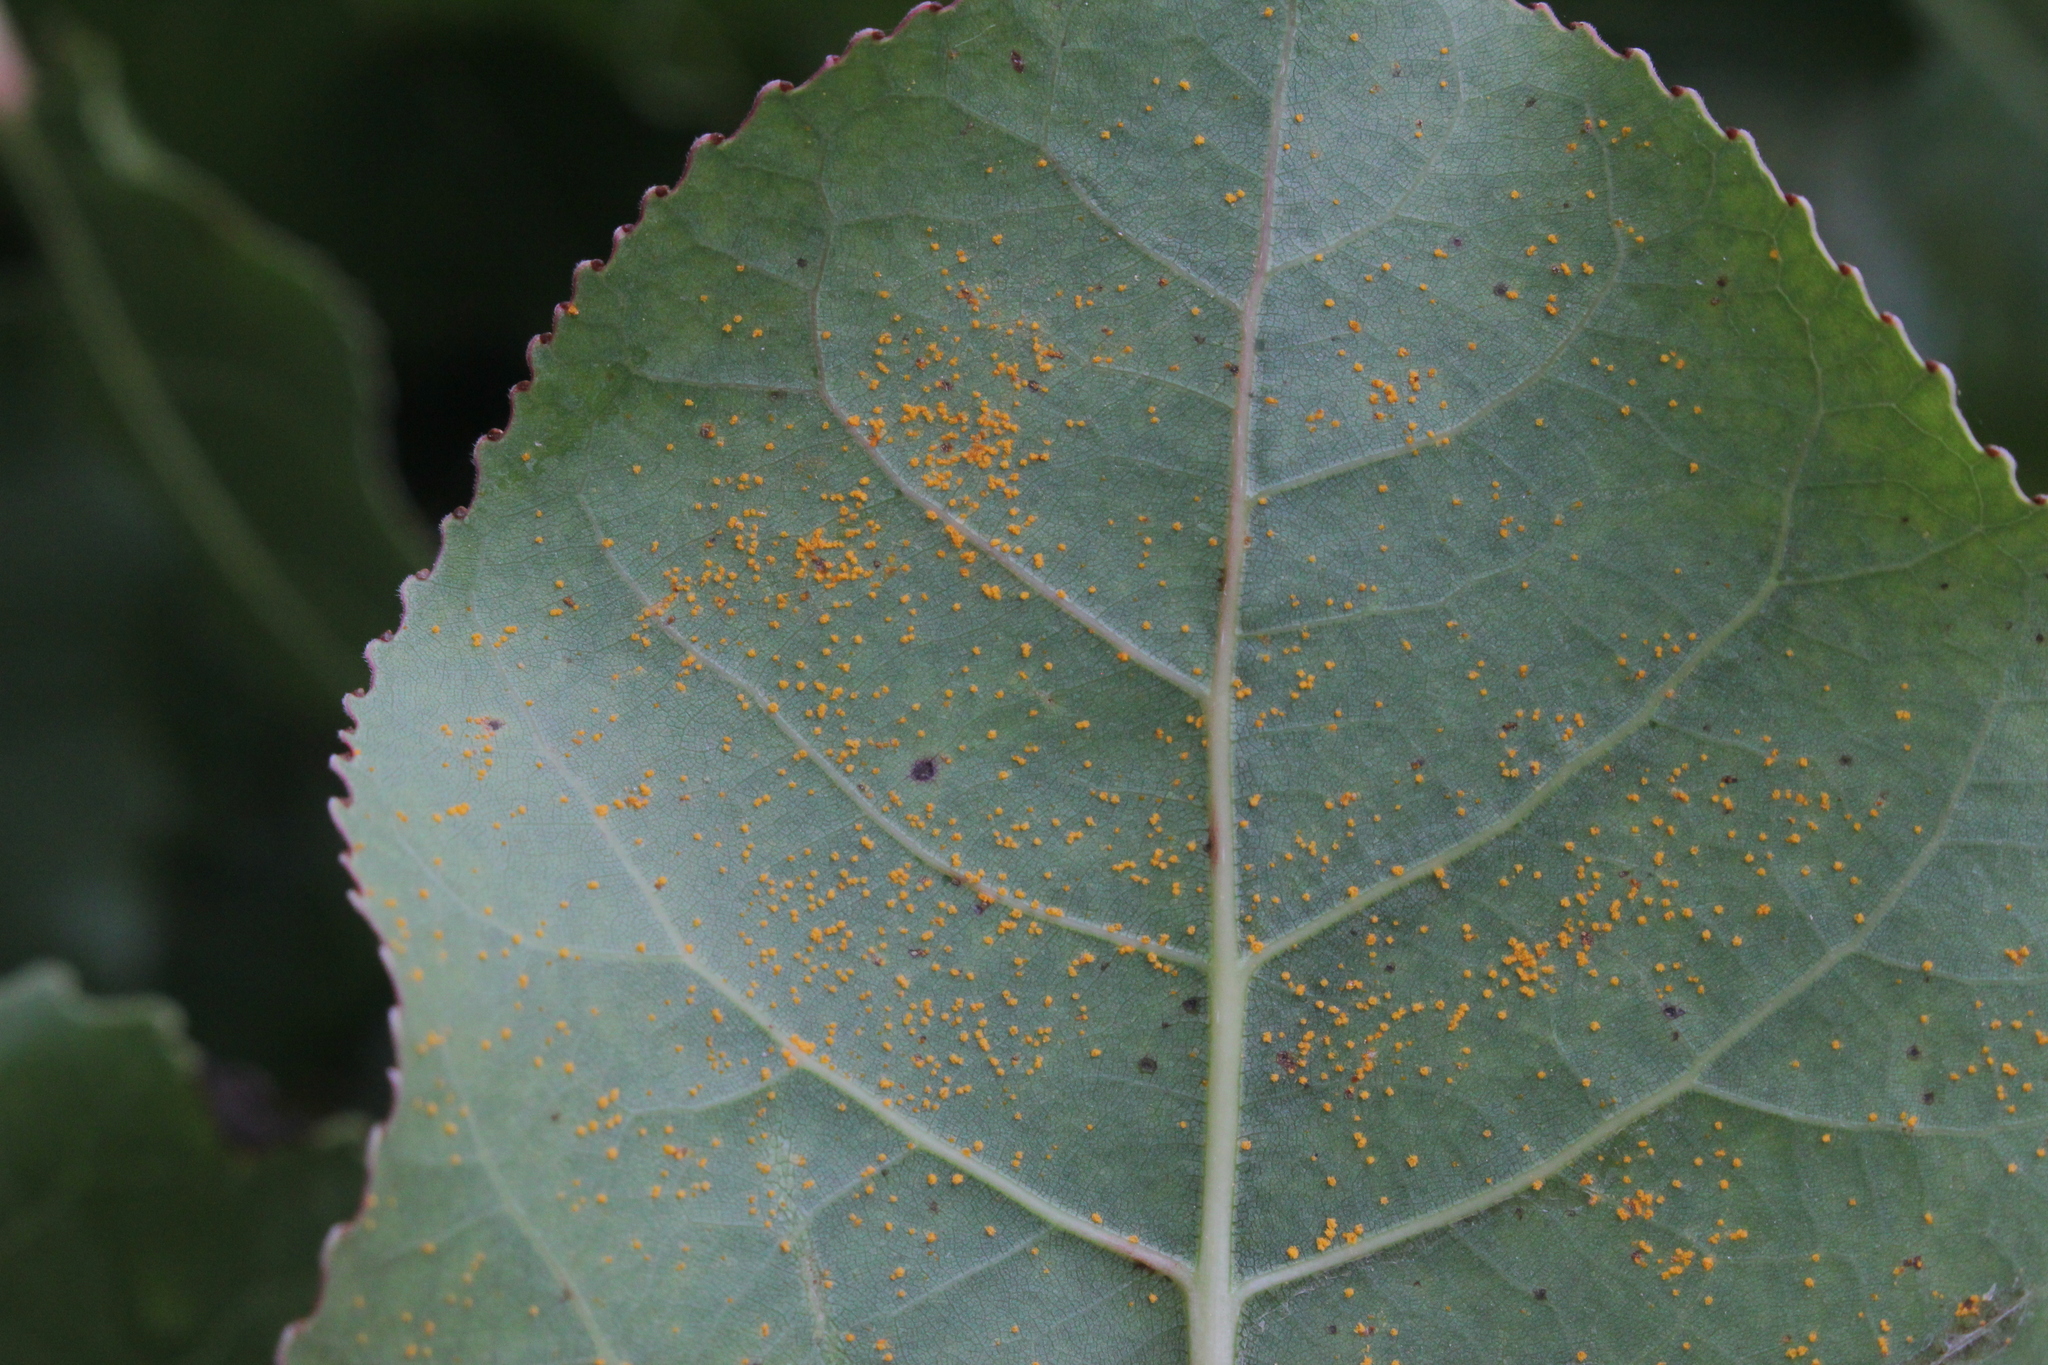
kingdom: Fungi
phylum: Basidiomycota
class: Pucciniomycetes
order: Pucciniales
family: Melampsoraceae
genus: Melampsora
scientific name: Melampsora medusae
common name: Poplar rust
